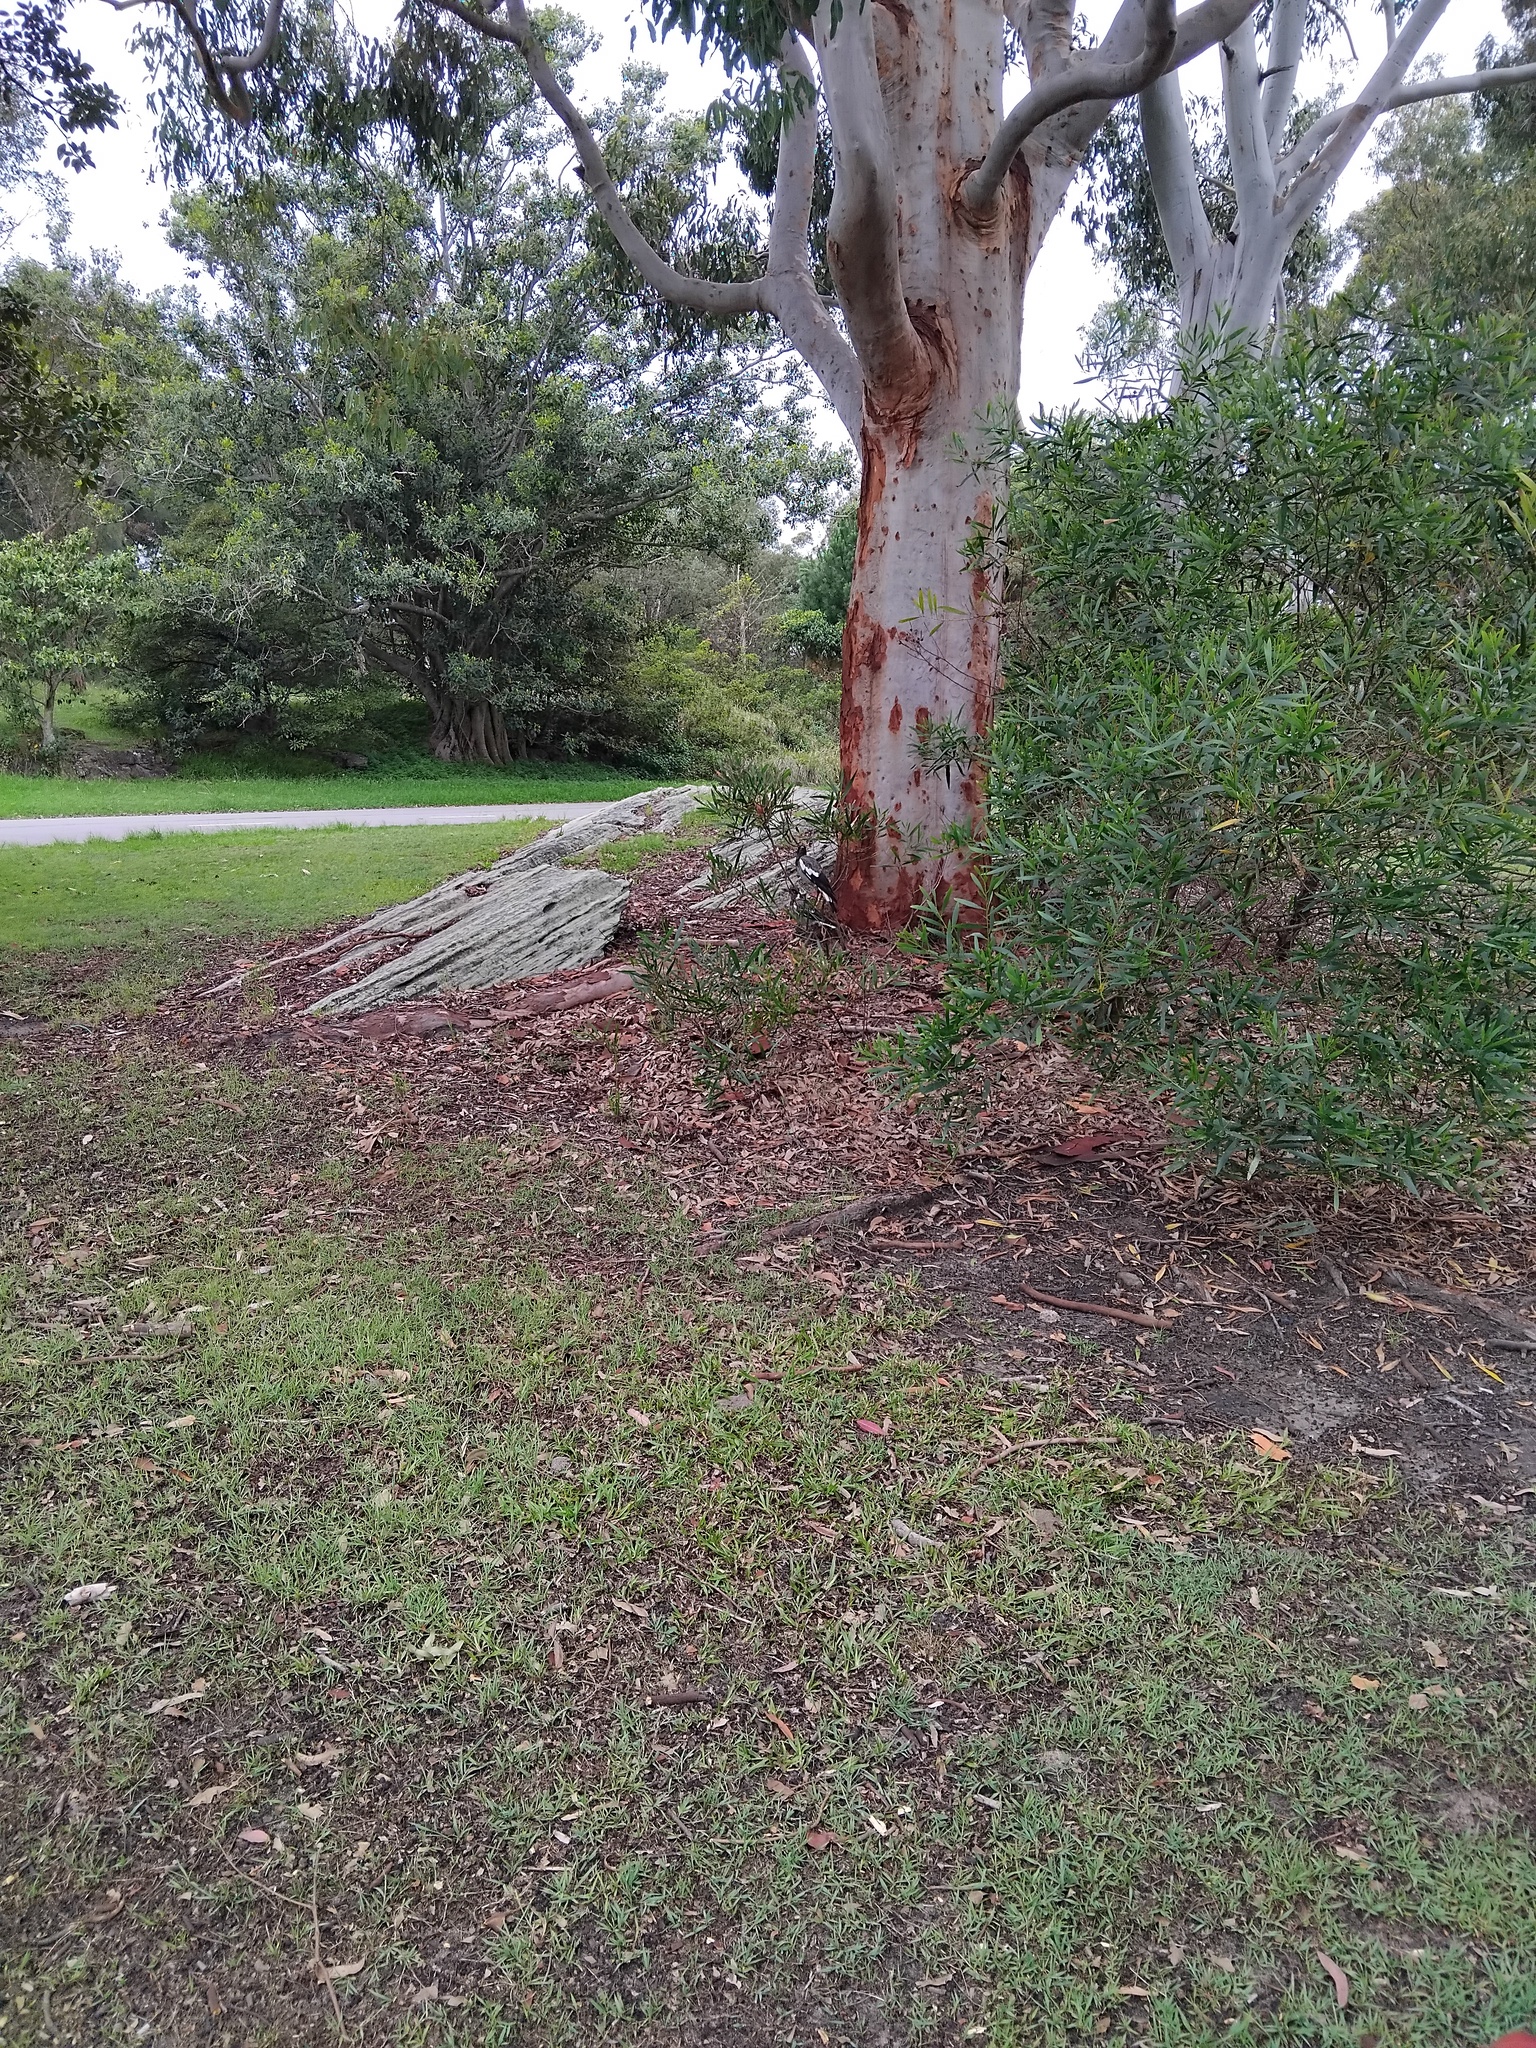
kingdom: Animalia
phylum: Chordata
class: Aves
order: Passeriformes
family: Cracticidae
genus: Gymnorhina
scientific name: Gymnorhina tibicen
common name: Australian magpie
